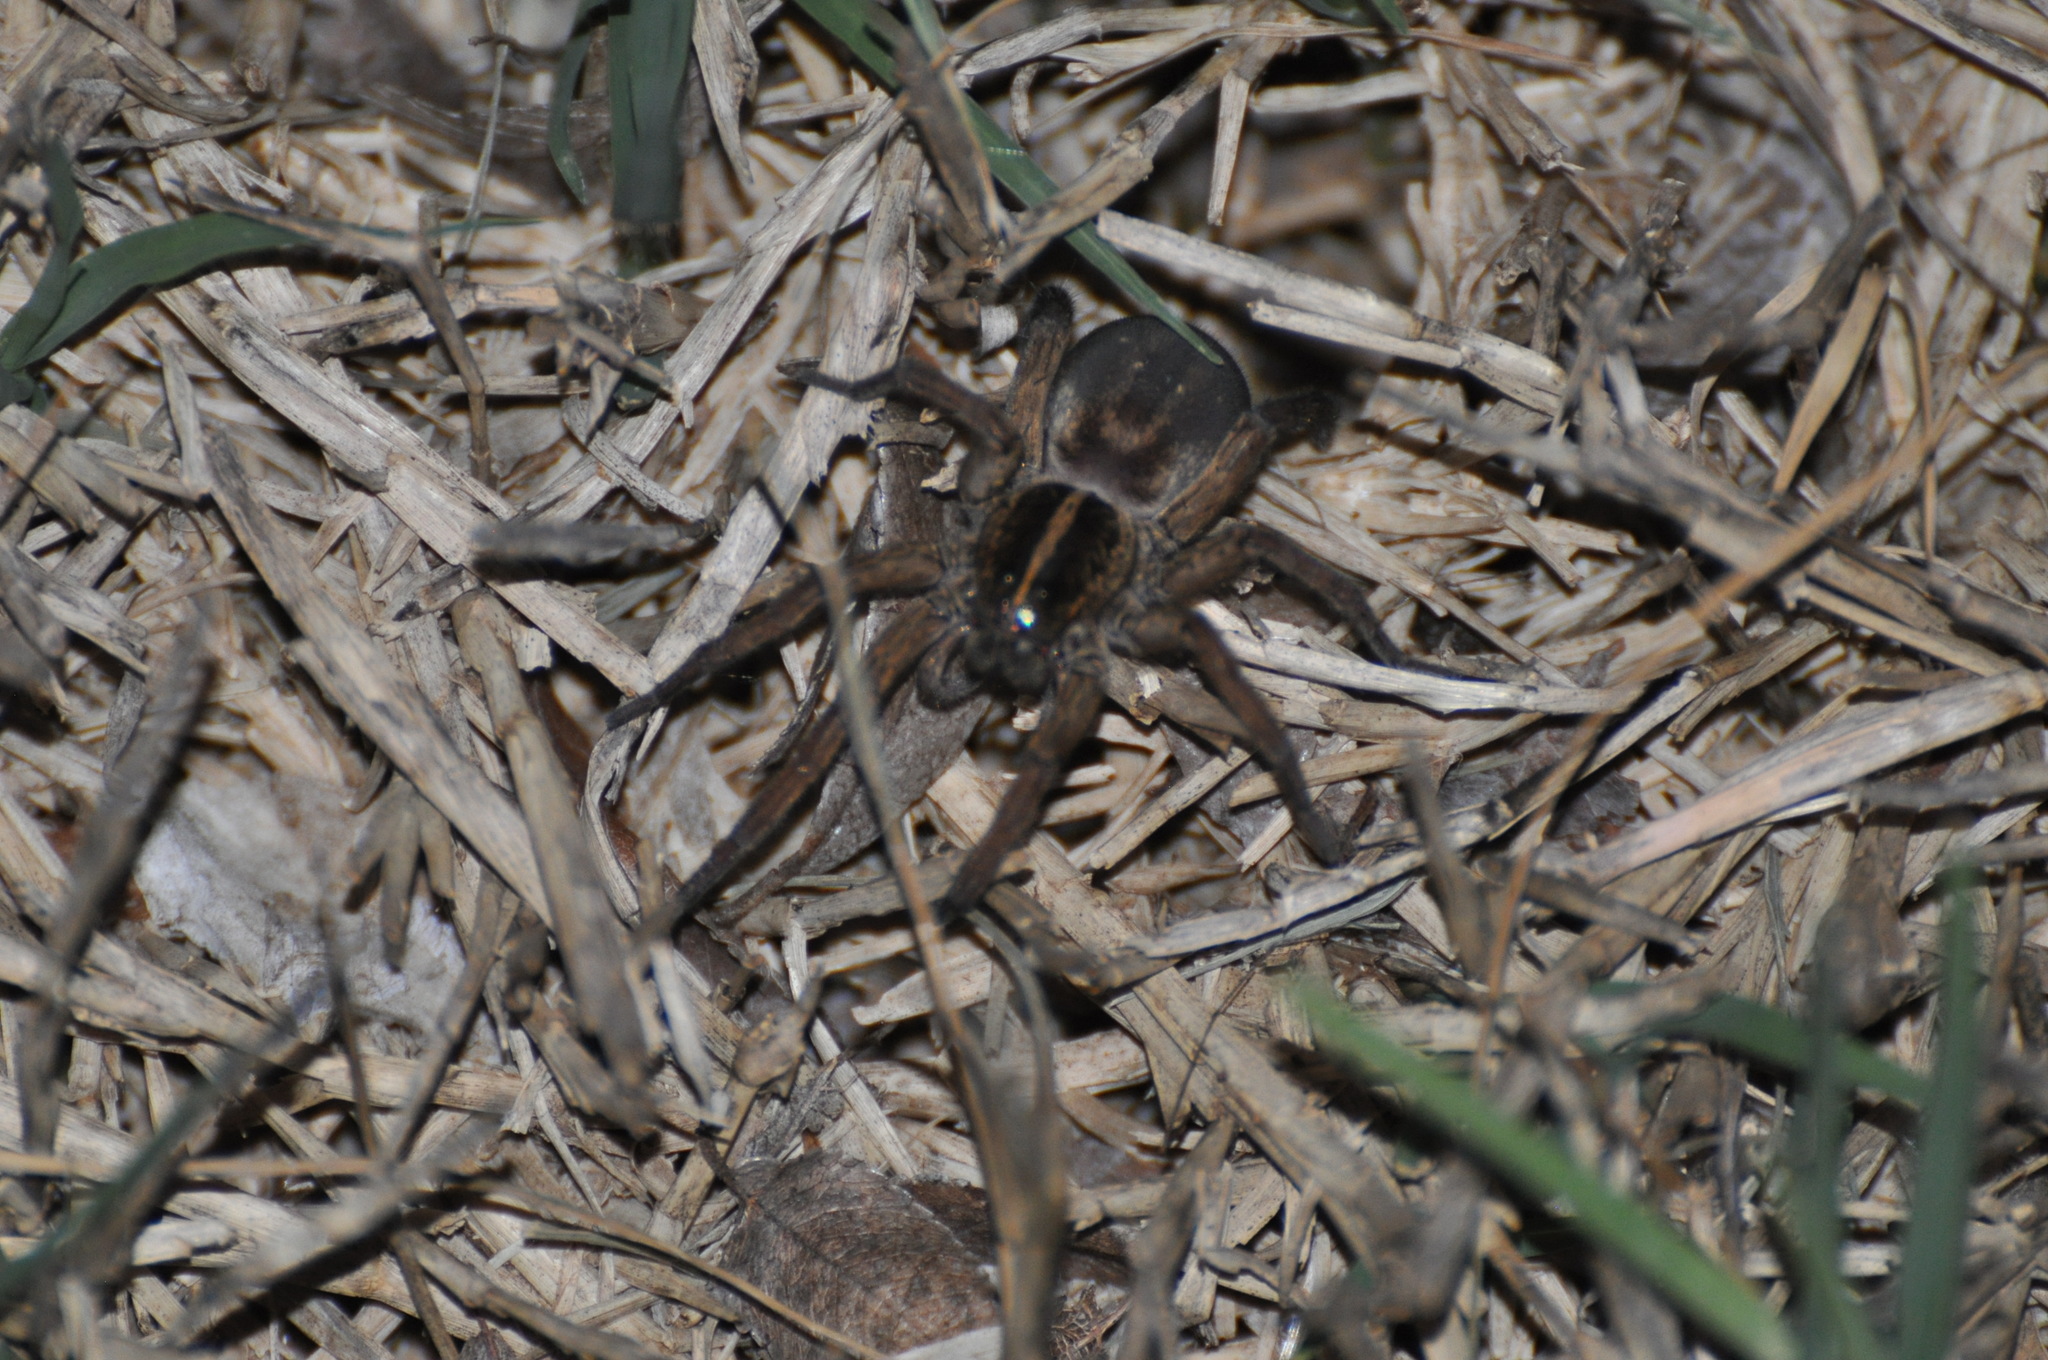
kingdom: Animalia
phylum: Arthropoda
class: Arachnida
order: Araneae
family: Lycosidae
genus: Tigrosa
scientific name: Tigrosa helluo
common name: Wetland giant wolf spider
